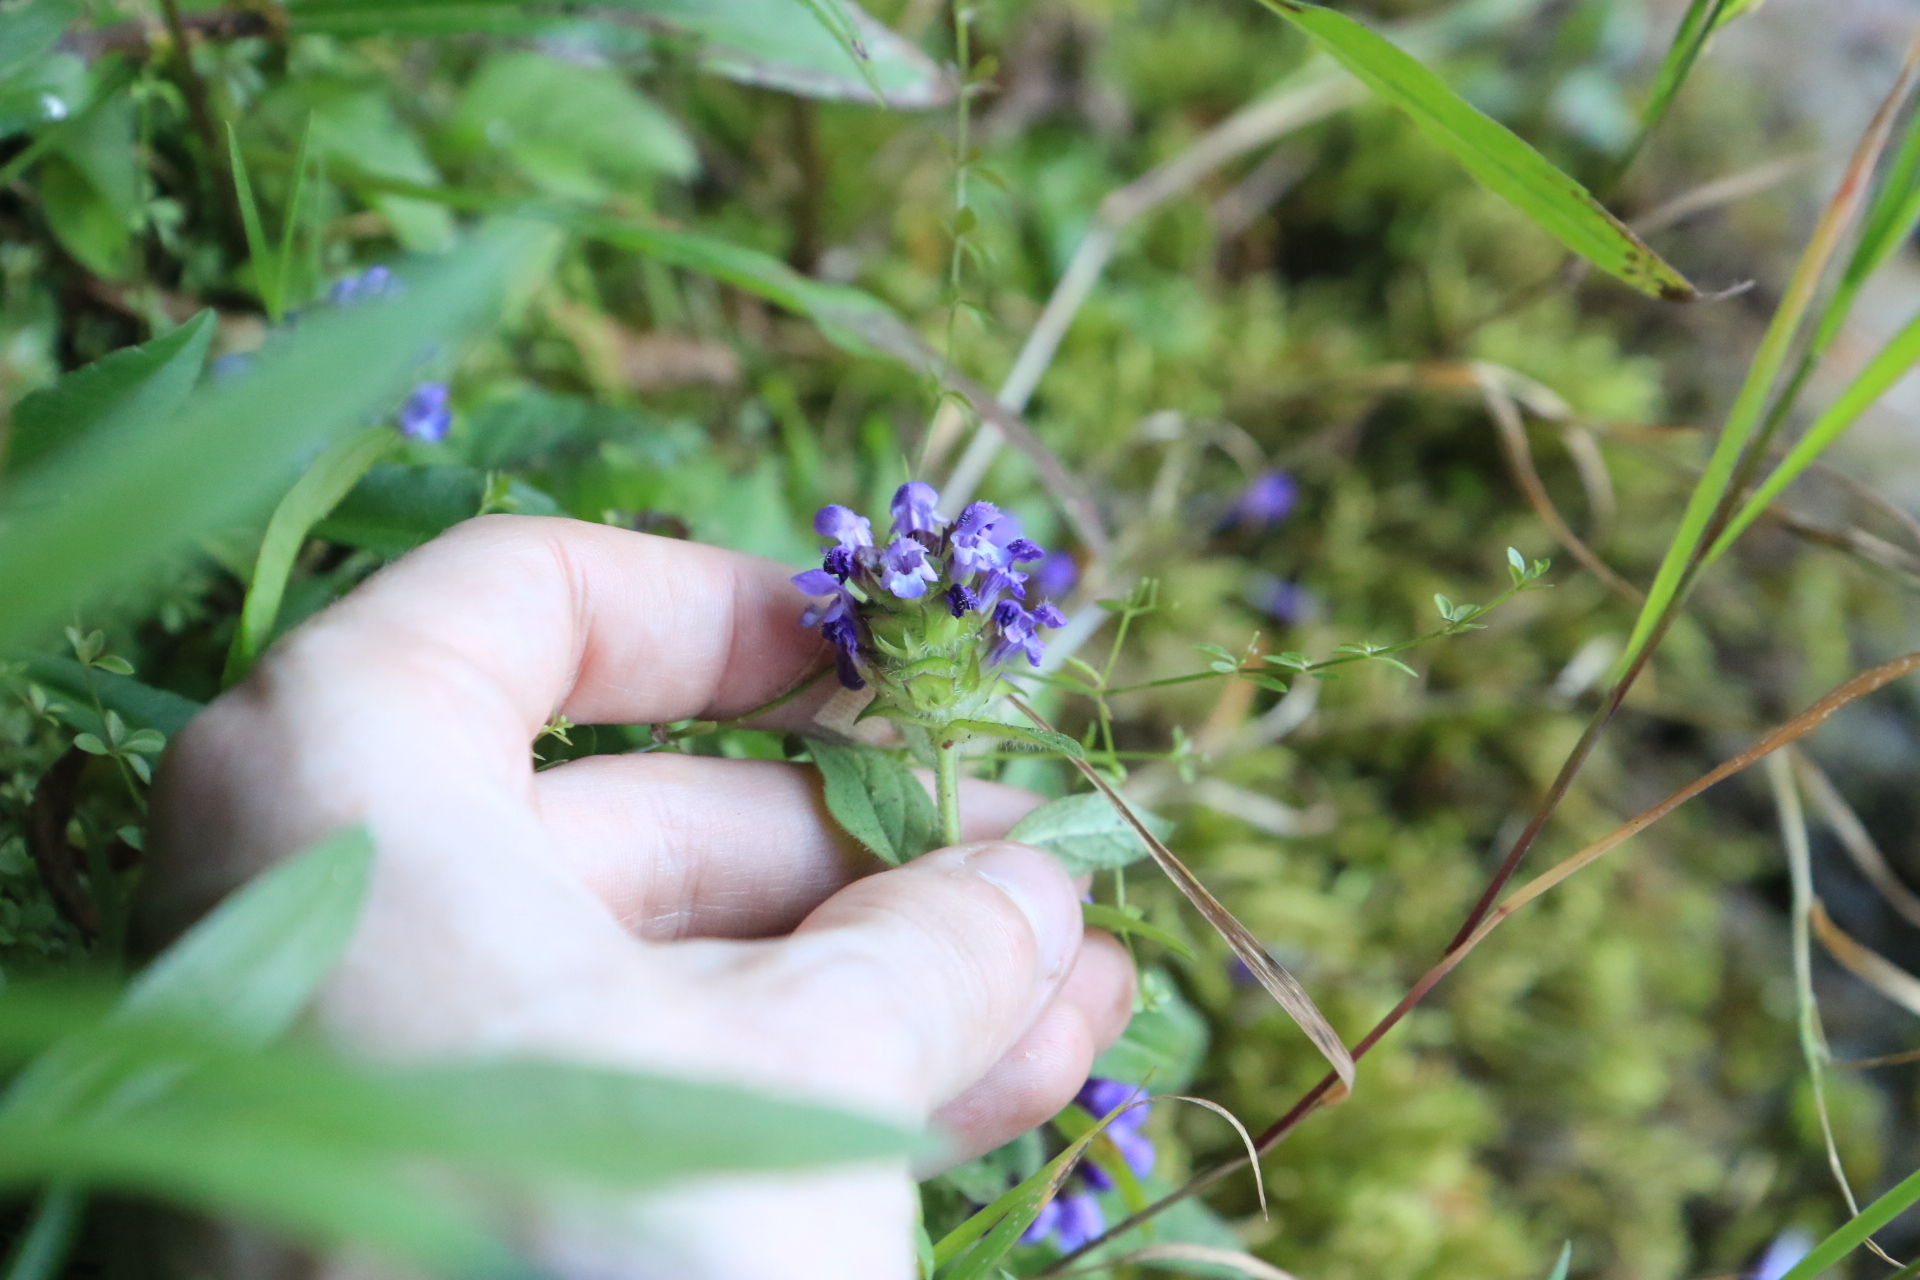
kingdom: Plantae
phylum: Tracheophyta
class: Magnoliopsida
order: Lamiales
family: Lamiaceae
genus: Prunella
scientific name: Prunella vulgaris
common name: Heal-all
